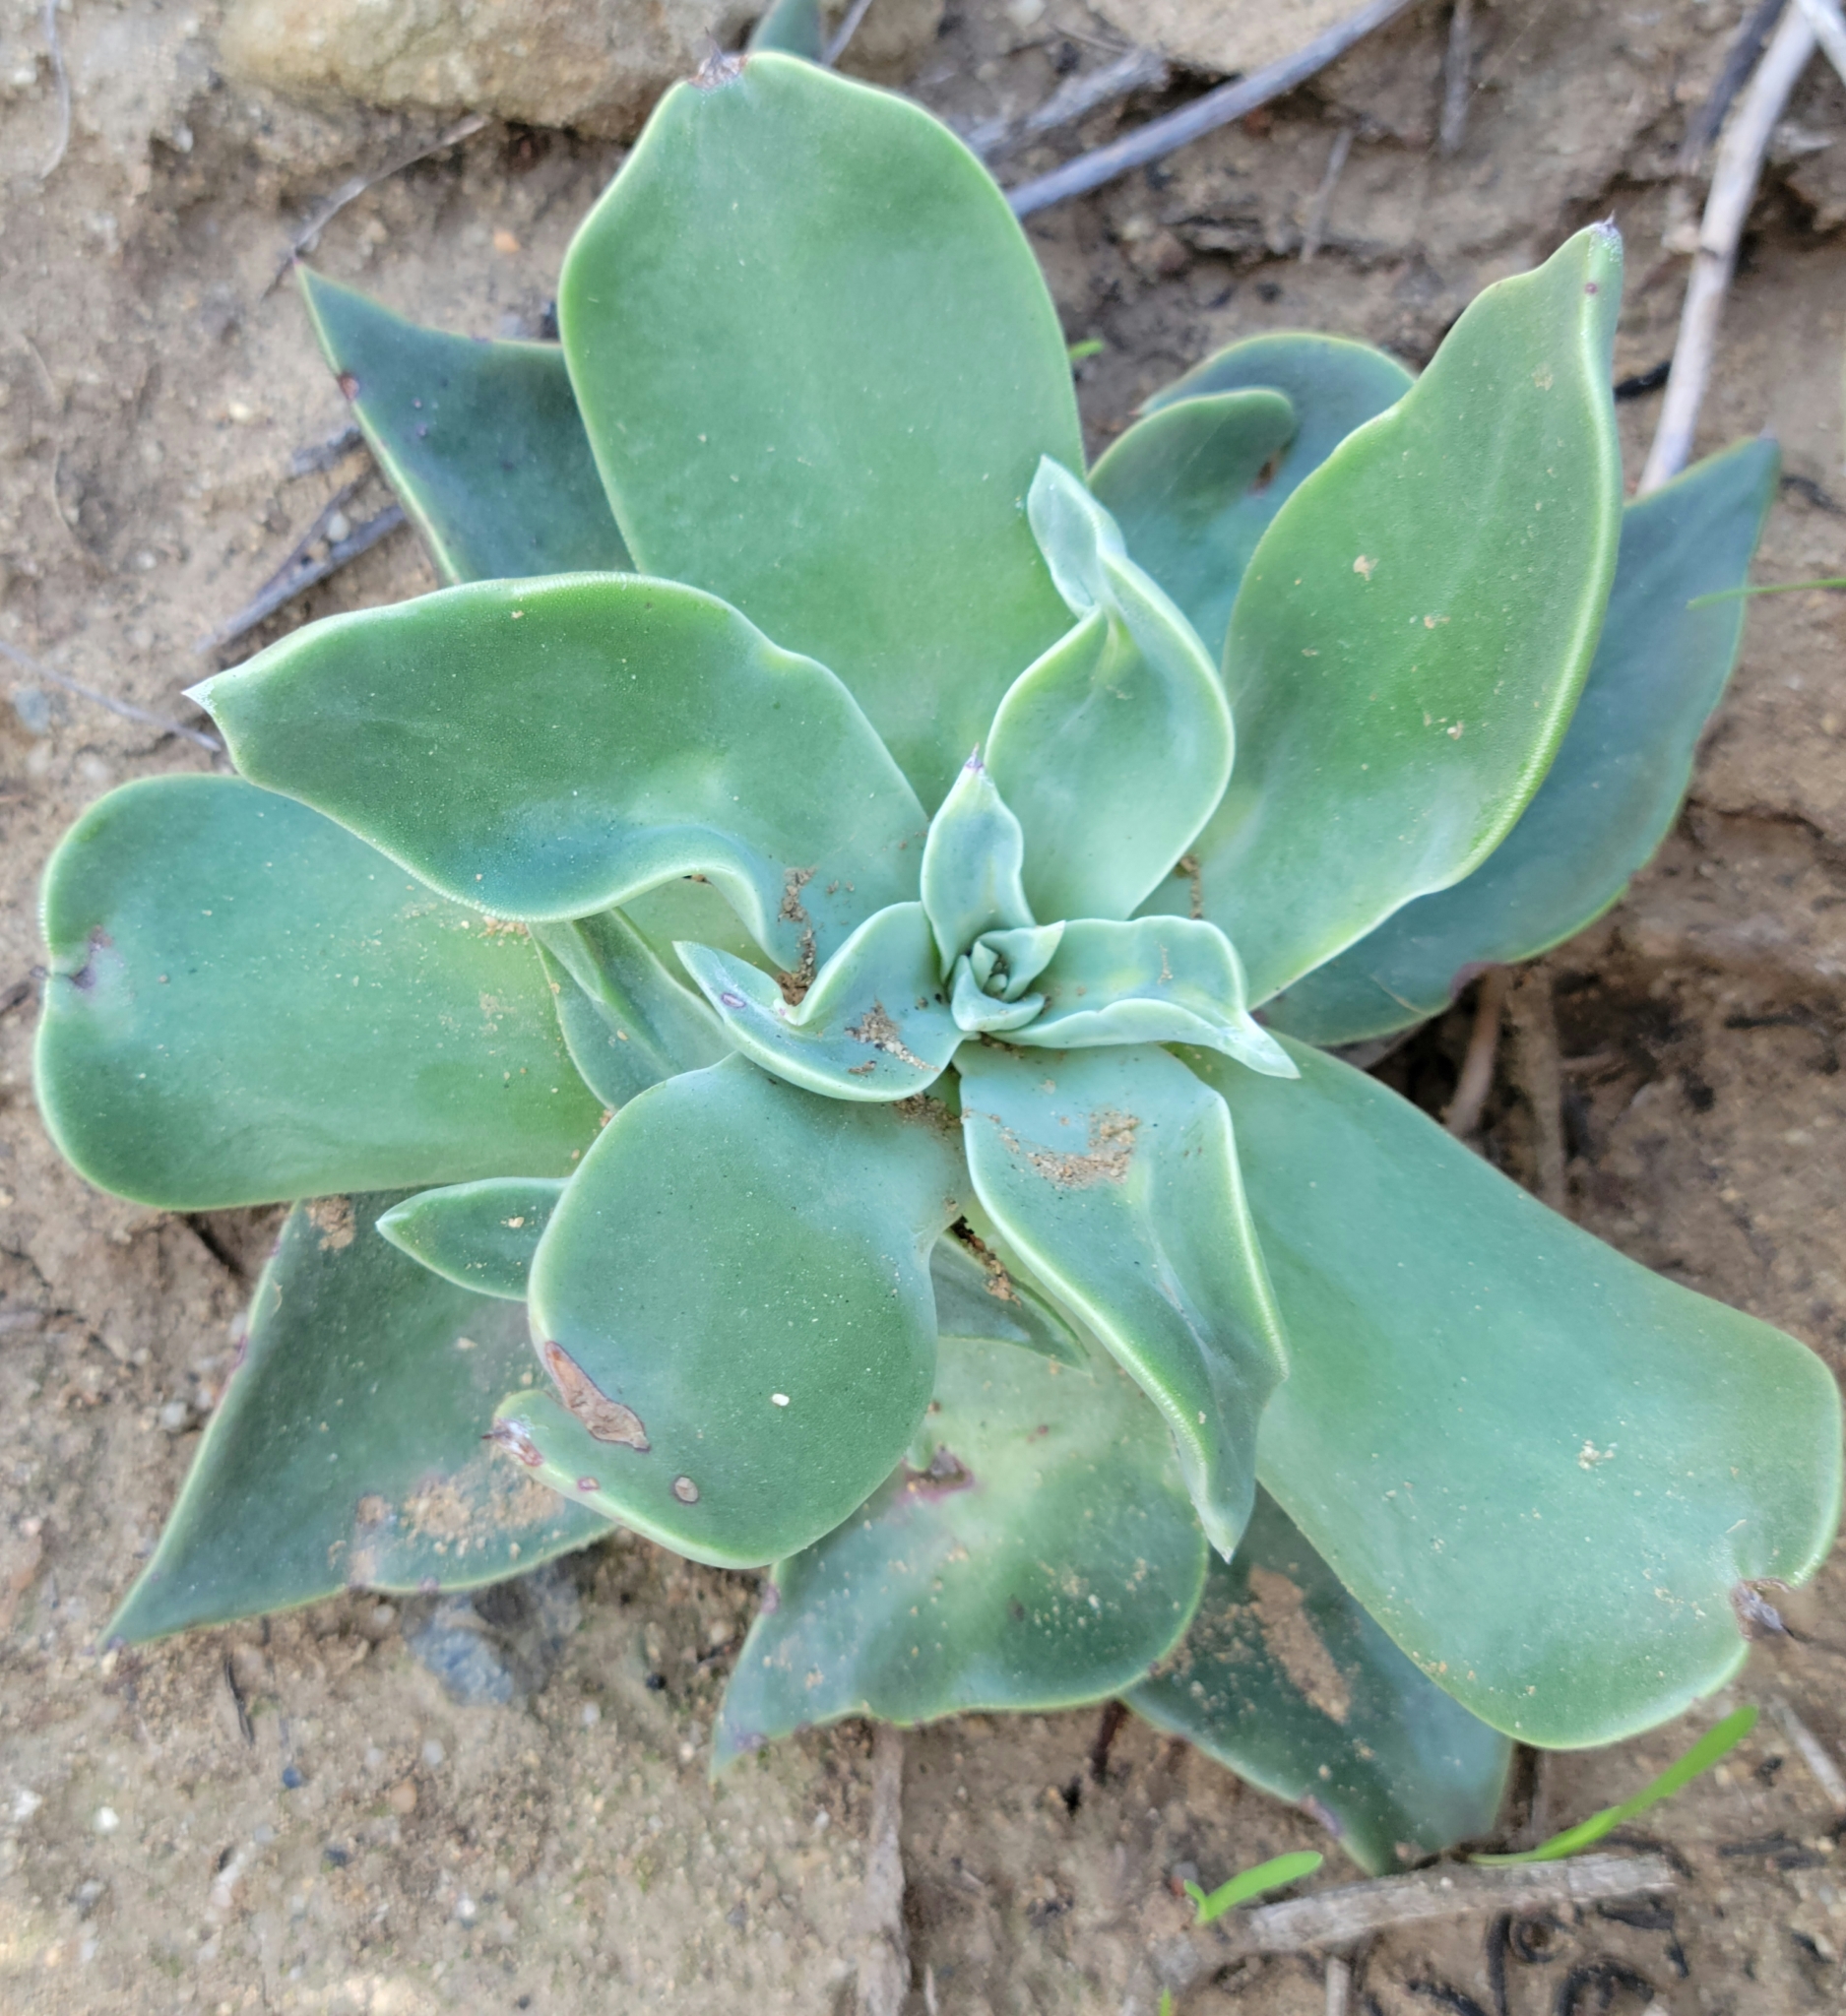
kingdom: Plantae
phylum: Tracheophyta
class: Magnoliopsida
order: Saxifragales
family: Crassulaceae
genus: Dudleya
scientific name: Dudleya pulverulenta
